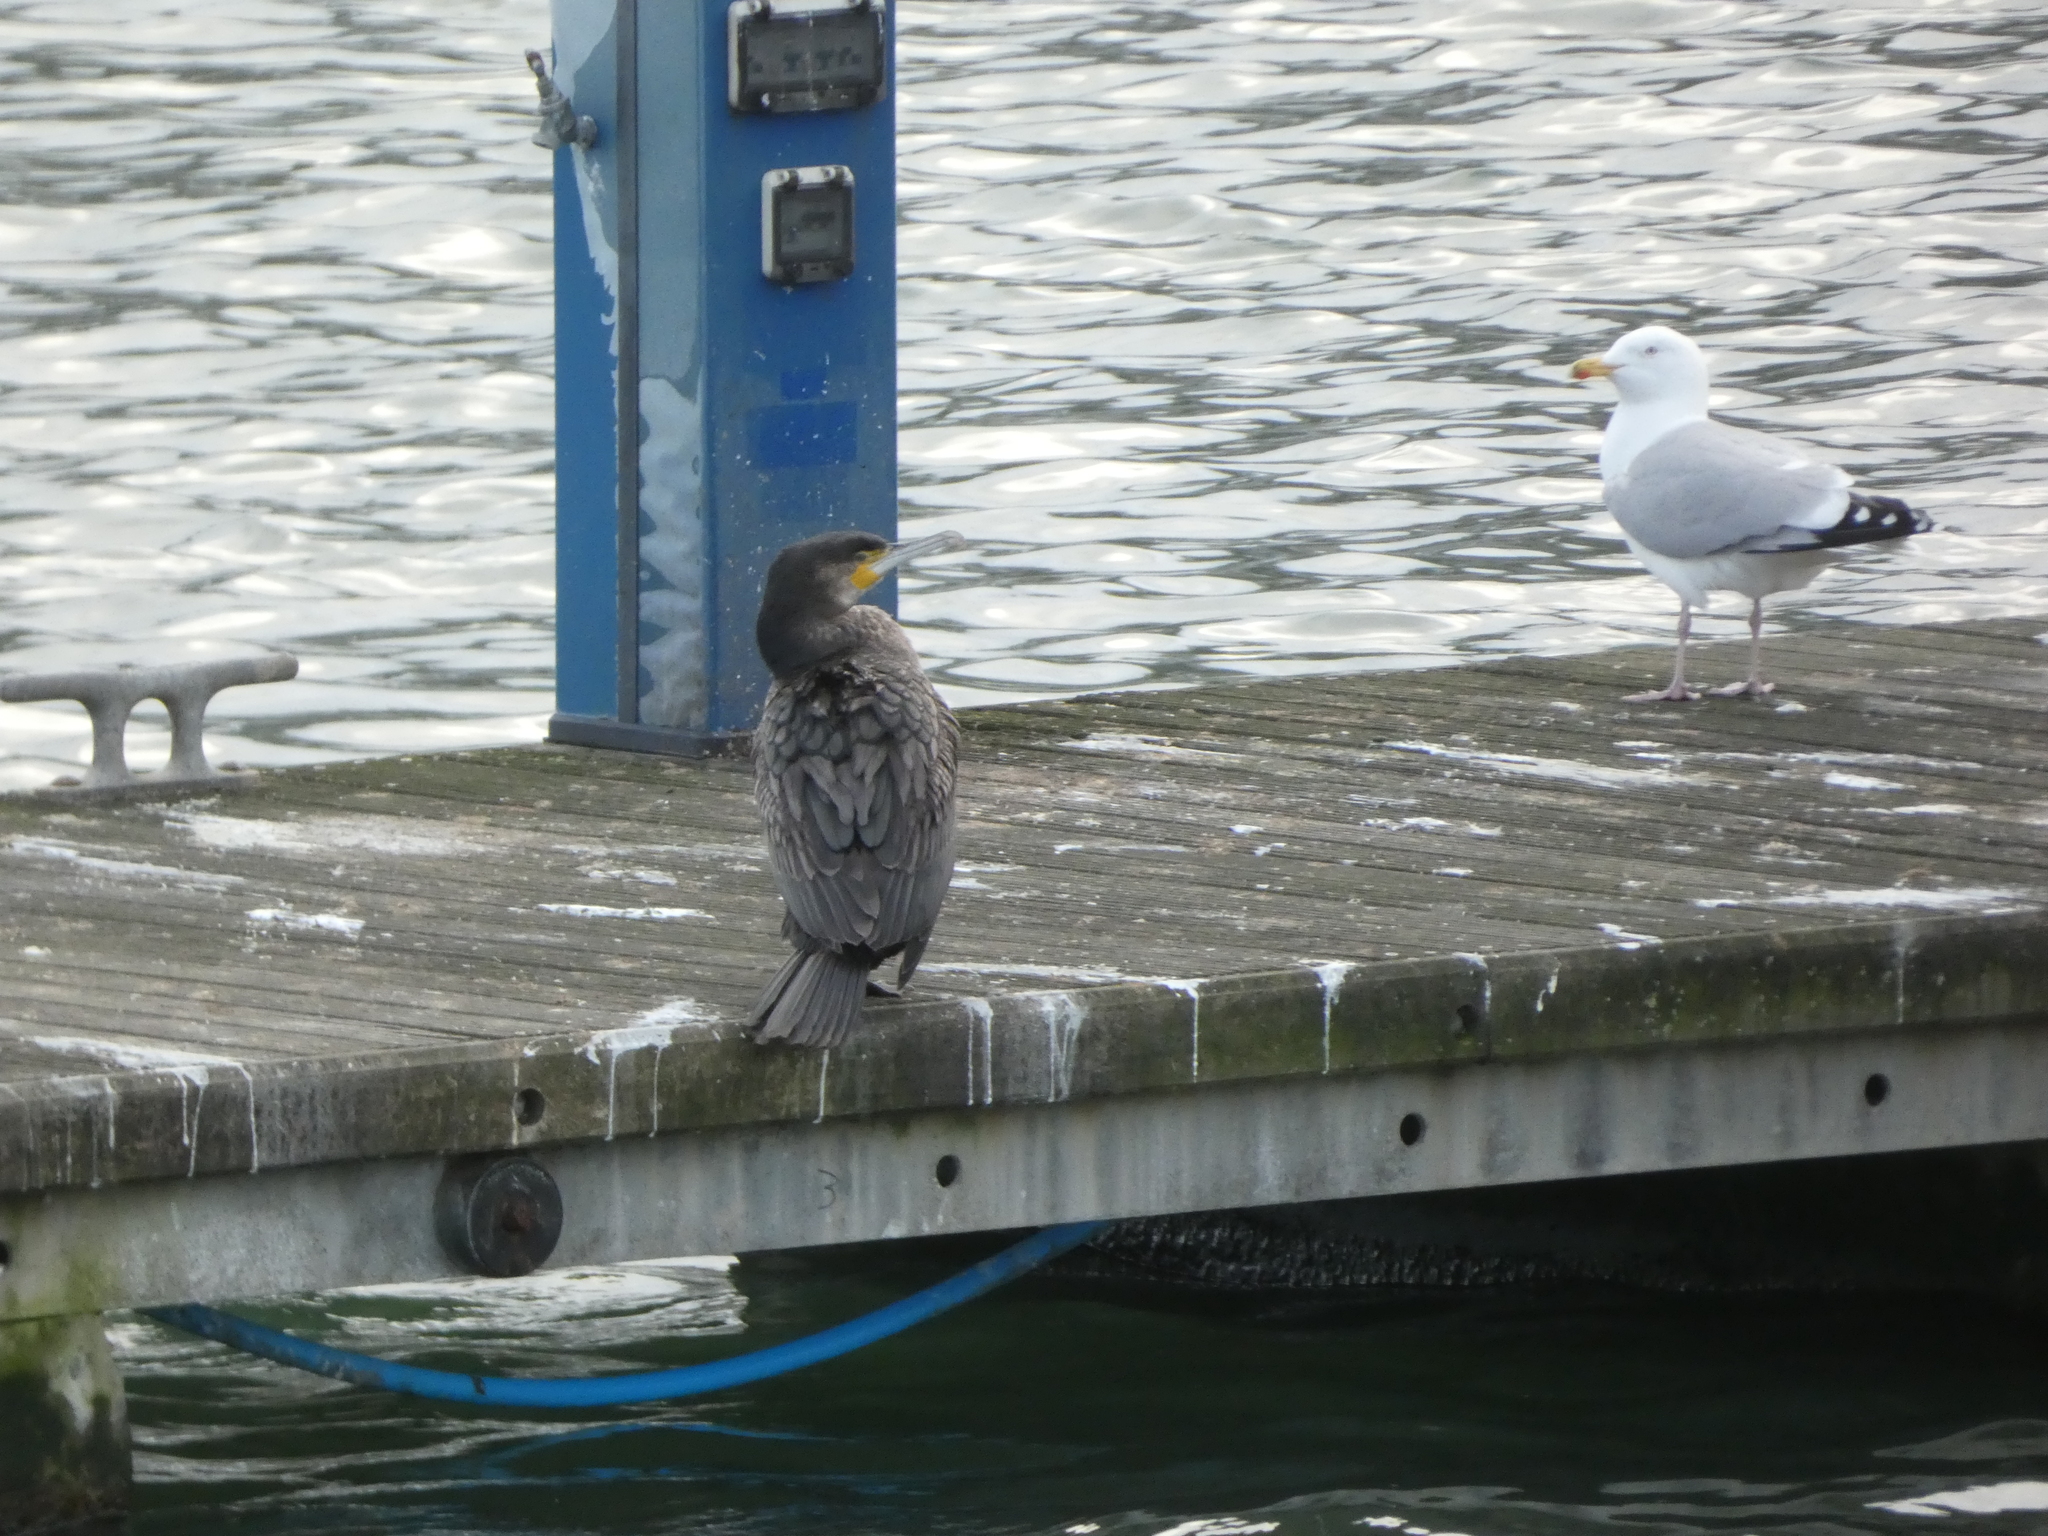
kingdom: Animalia
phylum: Chordata
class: Aves
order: Suliformes
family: Phalacrocoracidae
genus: Phalacrocorax
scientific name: Phalacrocorax carbo
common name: Great cormorant
